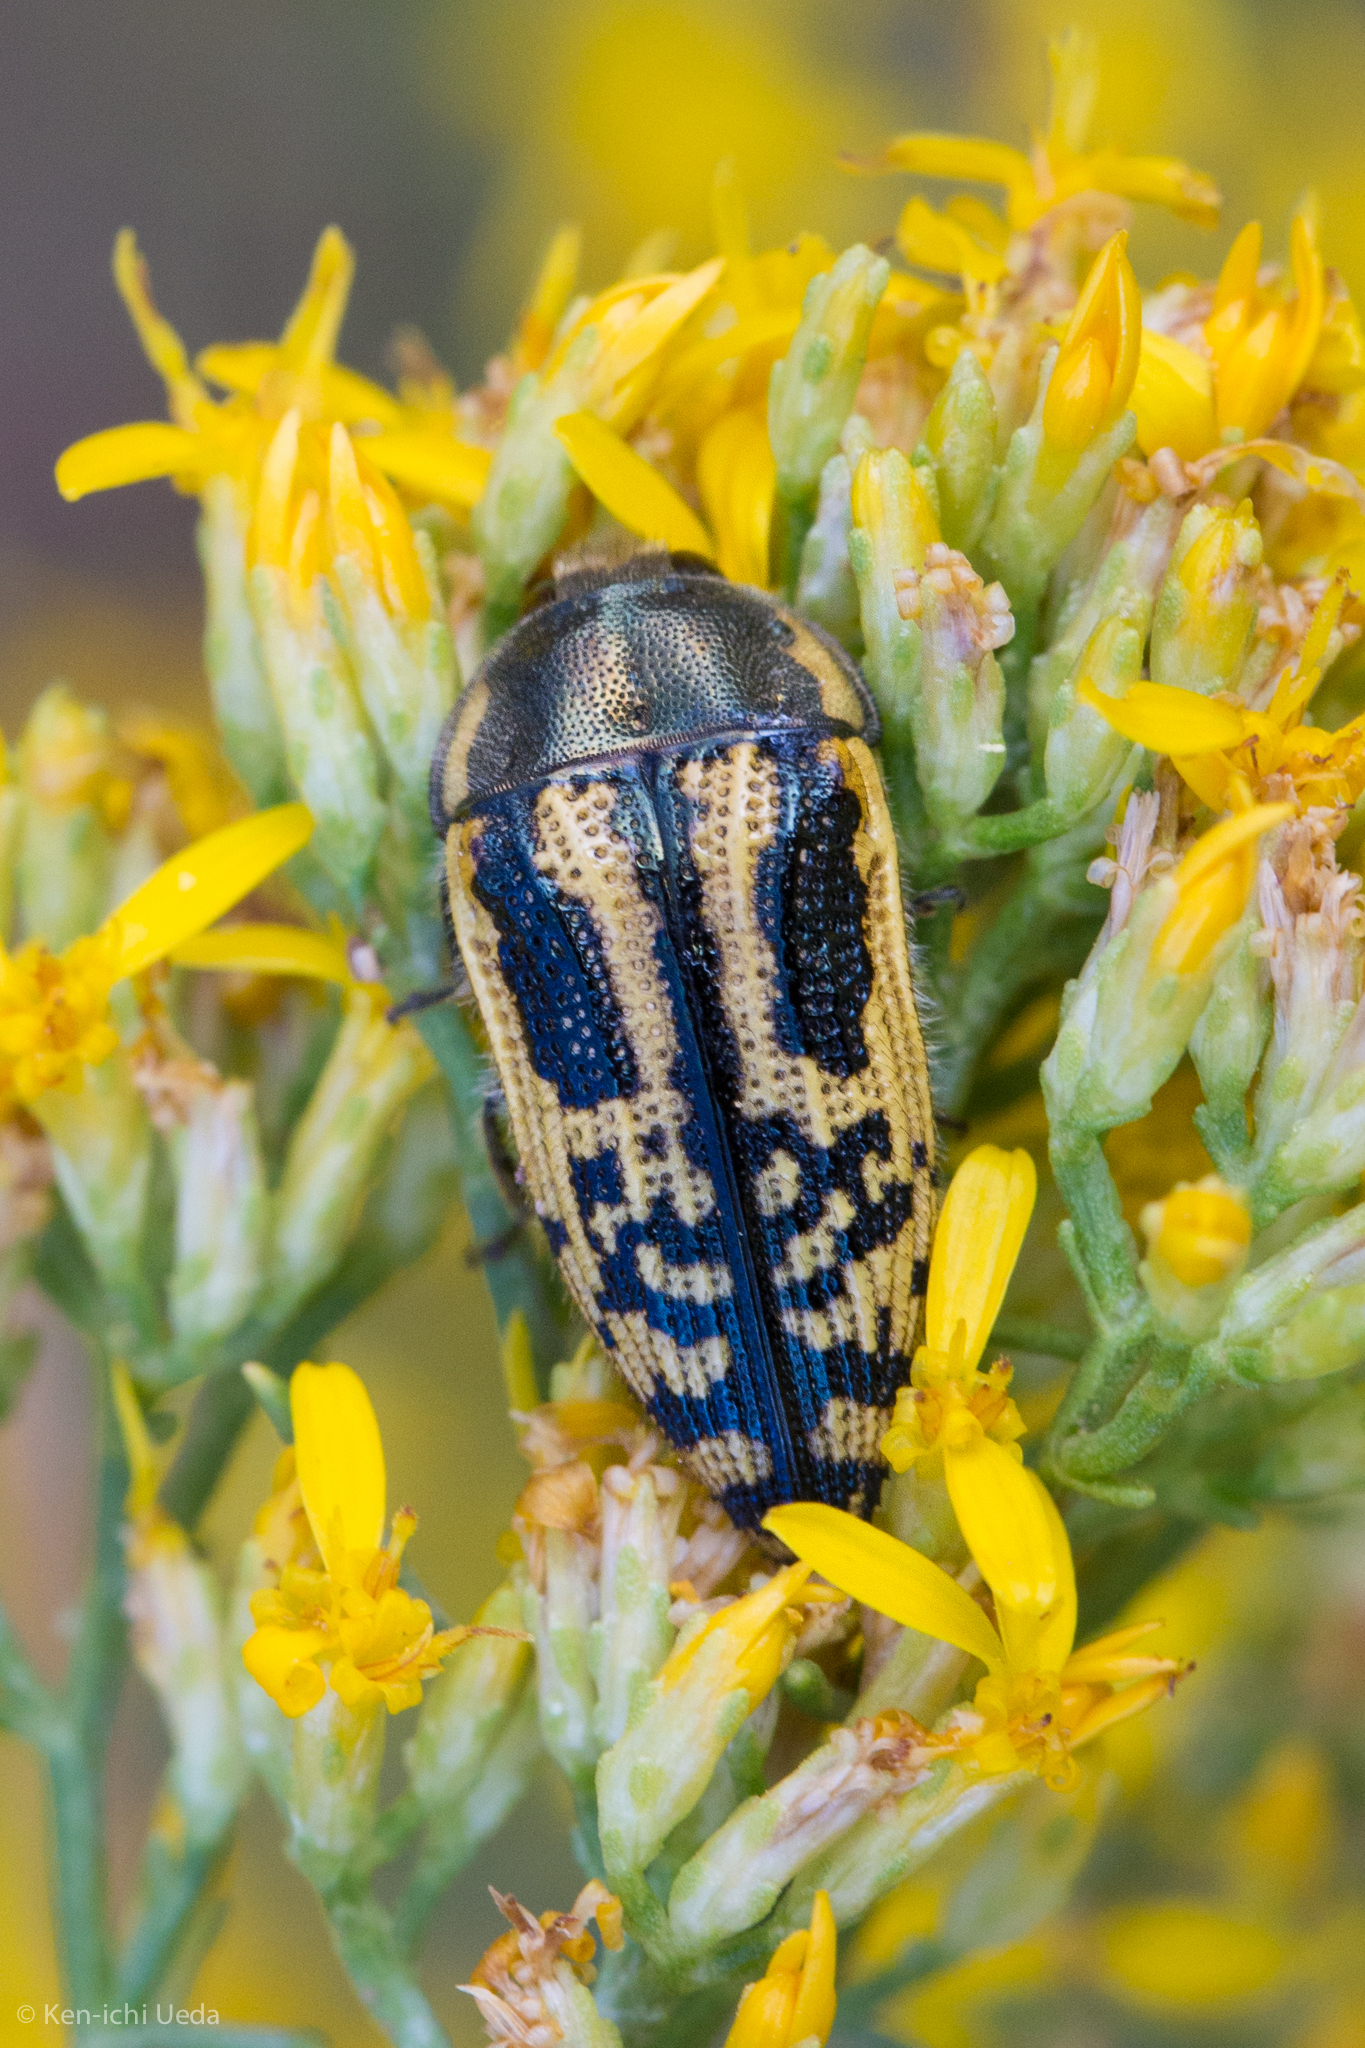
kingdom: Animalia
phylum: Arthropoda
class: Insecta
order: Coleoptera
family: Buprestidae
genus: Acmaeodera
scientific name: Acmaeodera amplicollis
